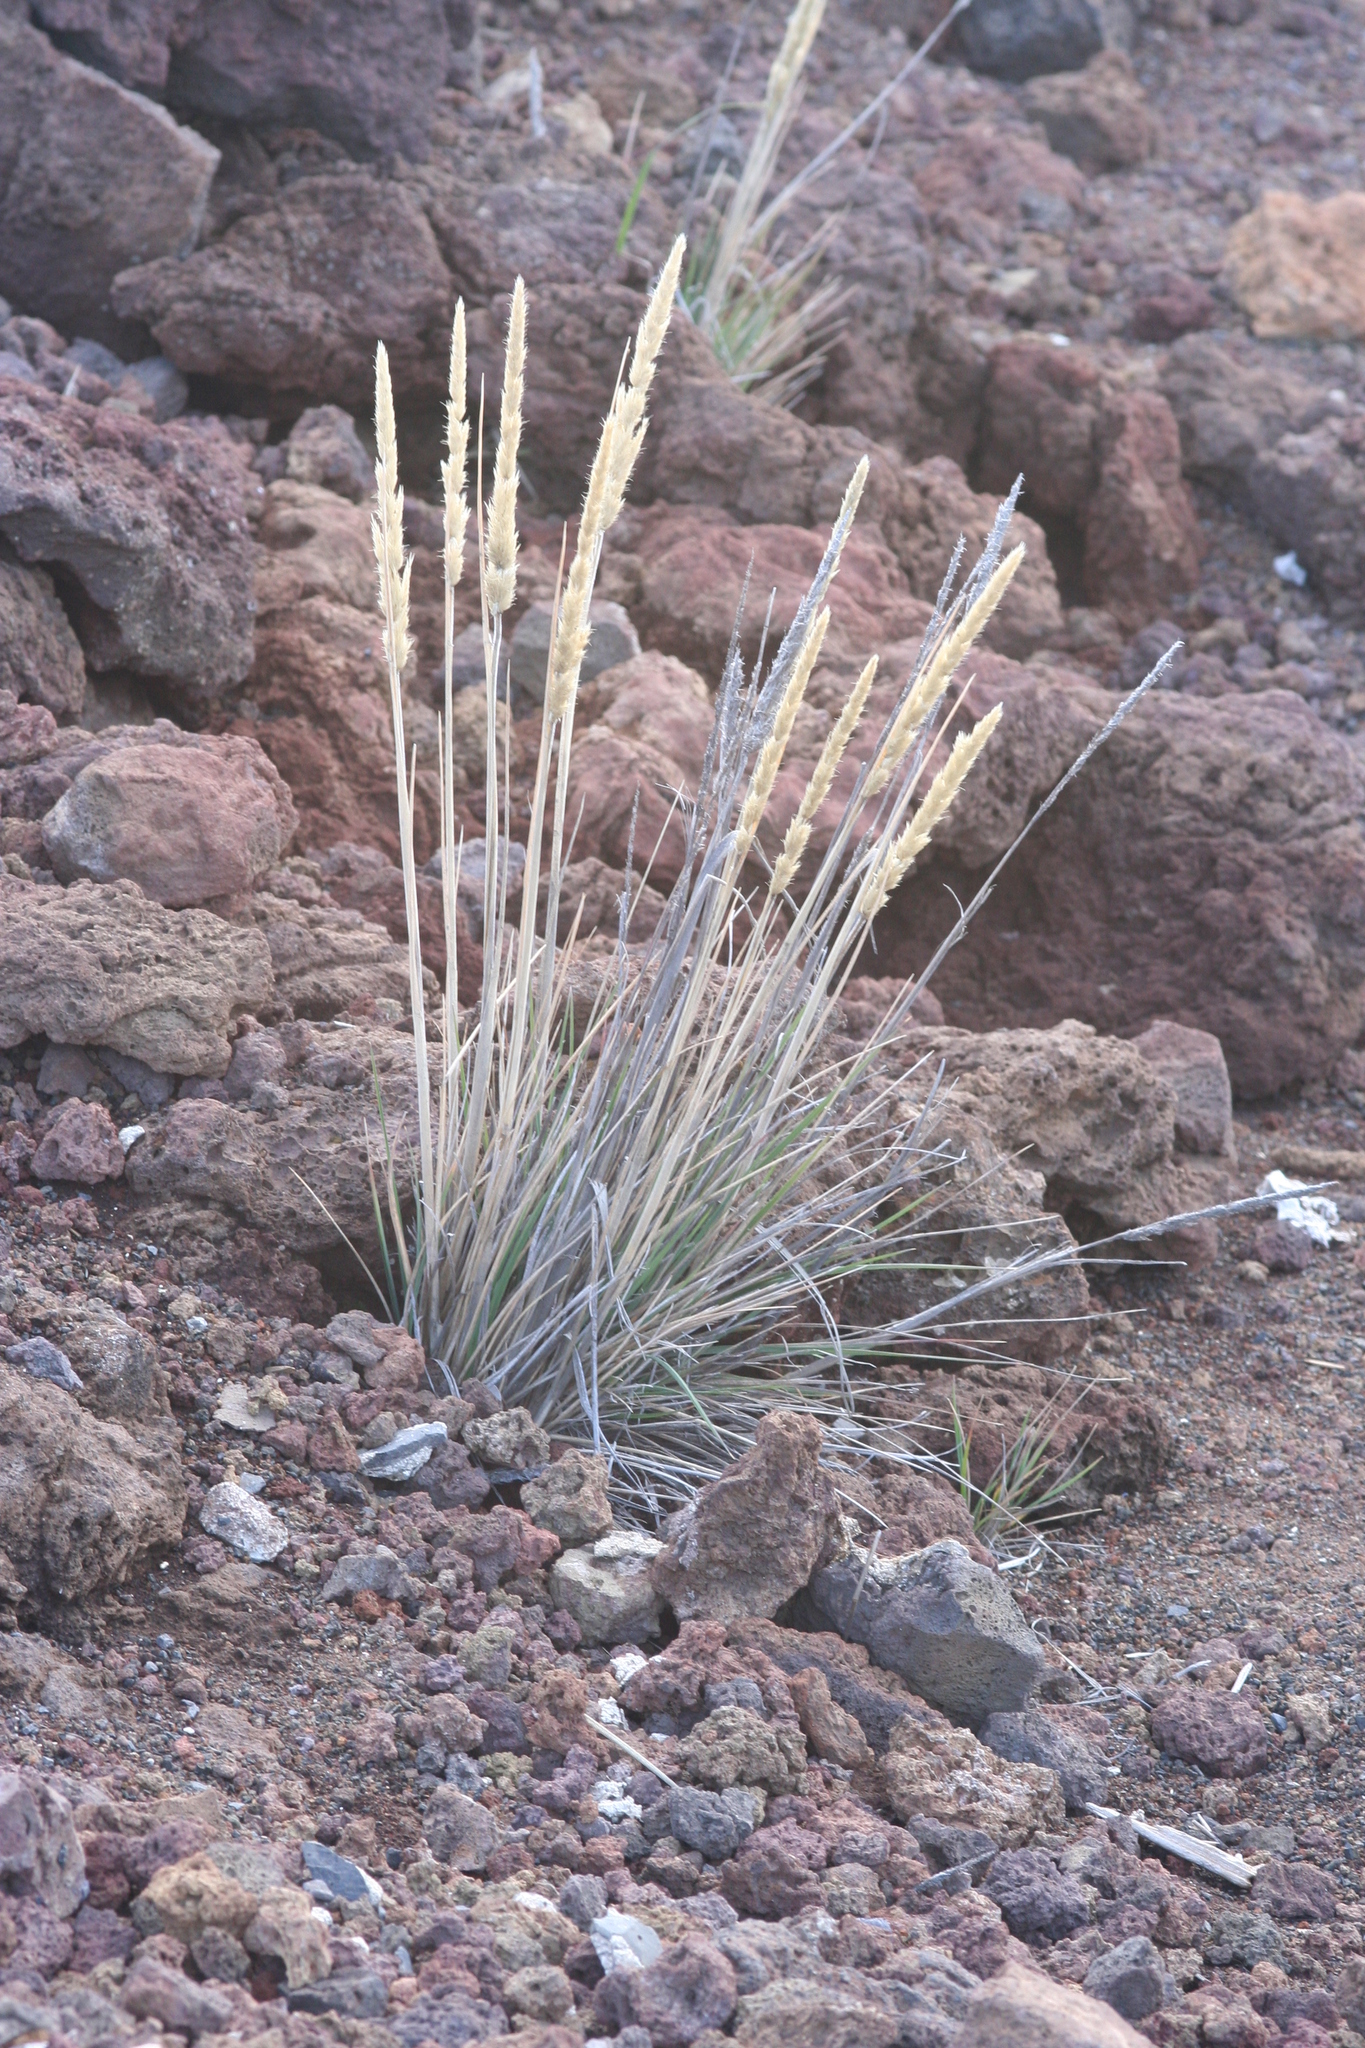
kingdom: Plantae
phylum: Tracheophyta
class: Liliopsida
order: Poales
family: Poaceae
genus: Trisetum
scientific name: Trisetum glomeratum
